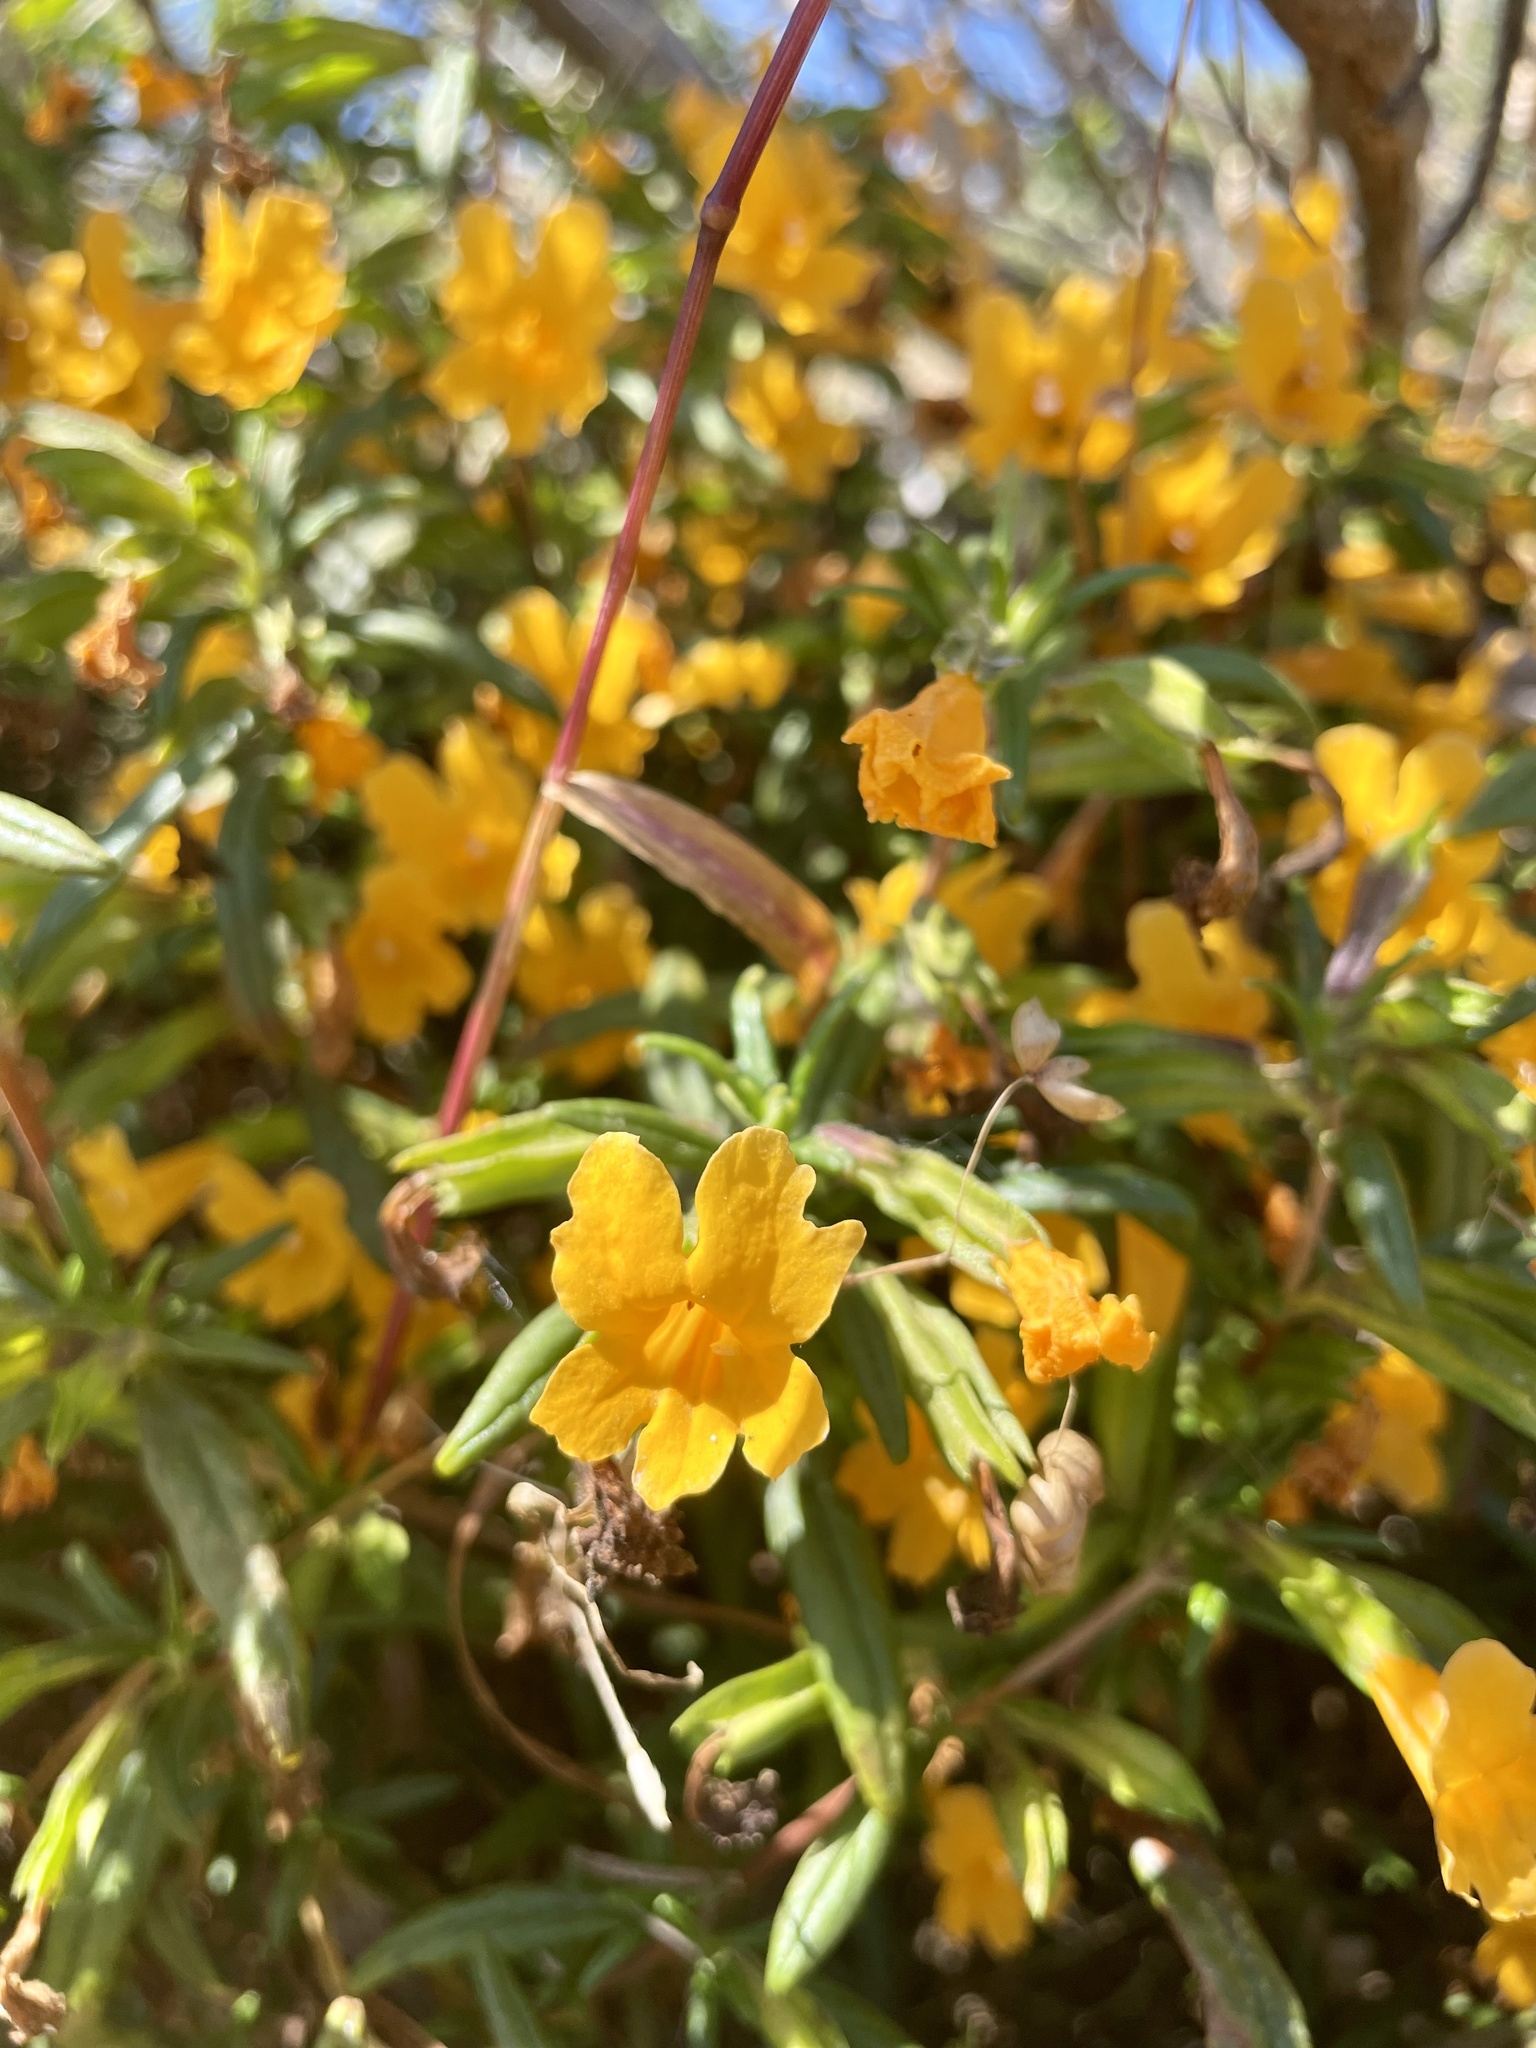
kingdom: Plantae
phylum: Tracheophyta
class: Magnoliopsida
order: Lamiales
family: Phrymaceae
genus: Diplacus
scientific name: Diplacus aurantiacus
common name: Bush monkey-flower
